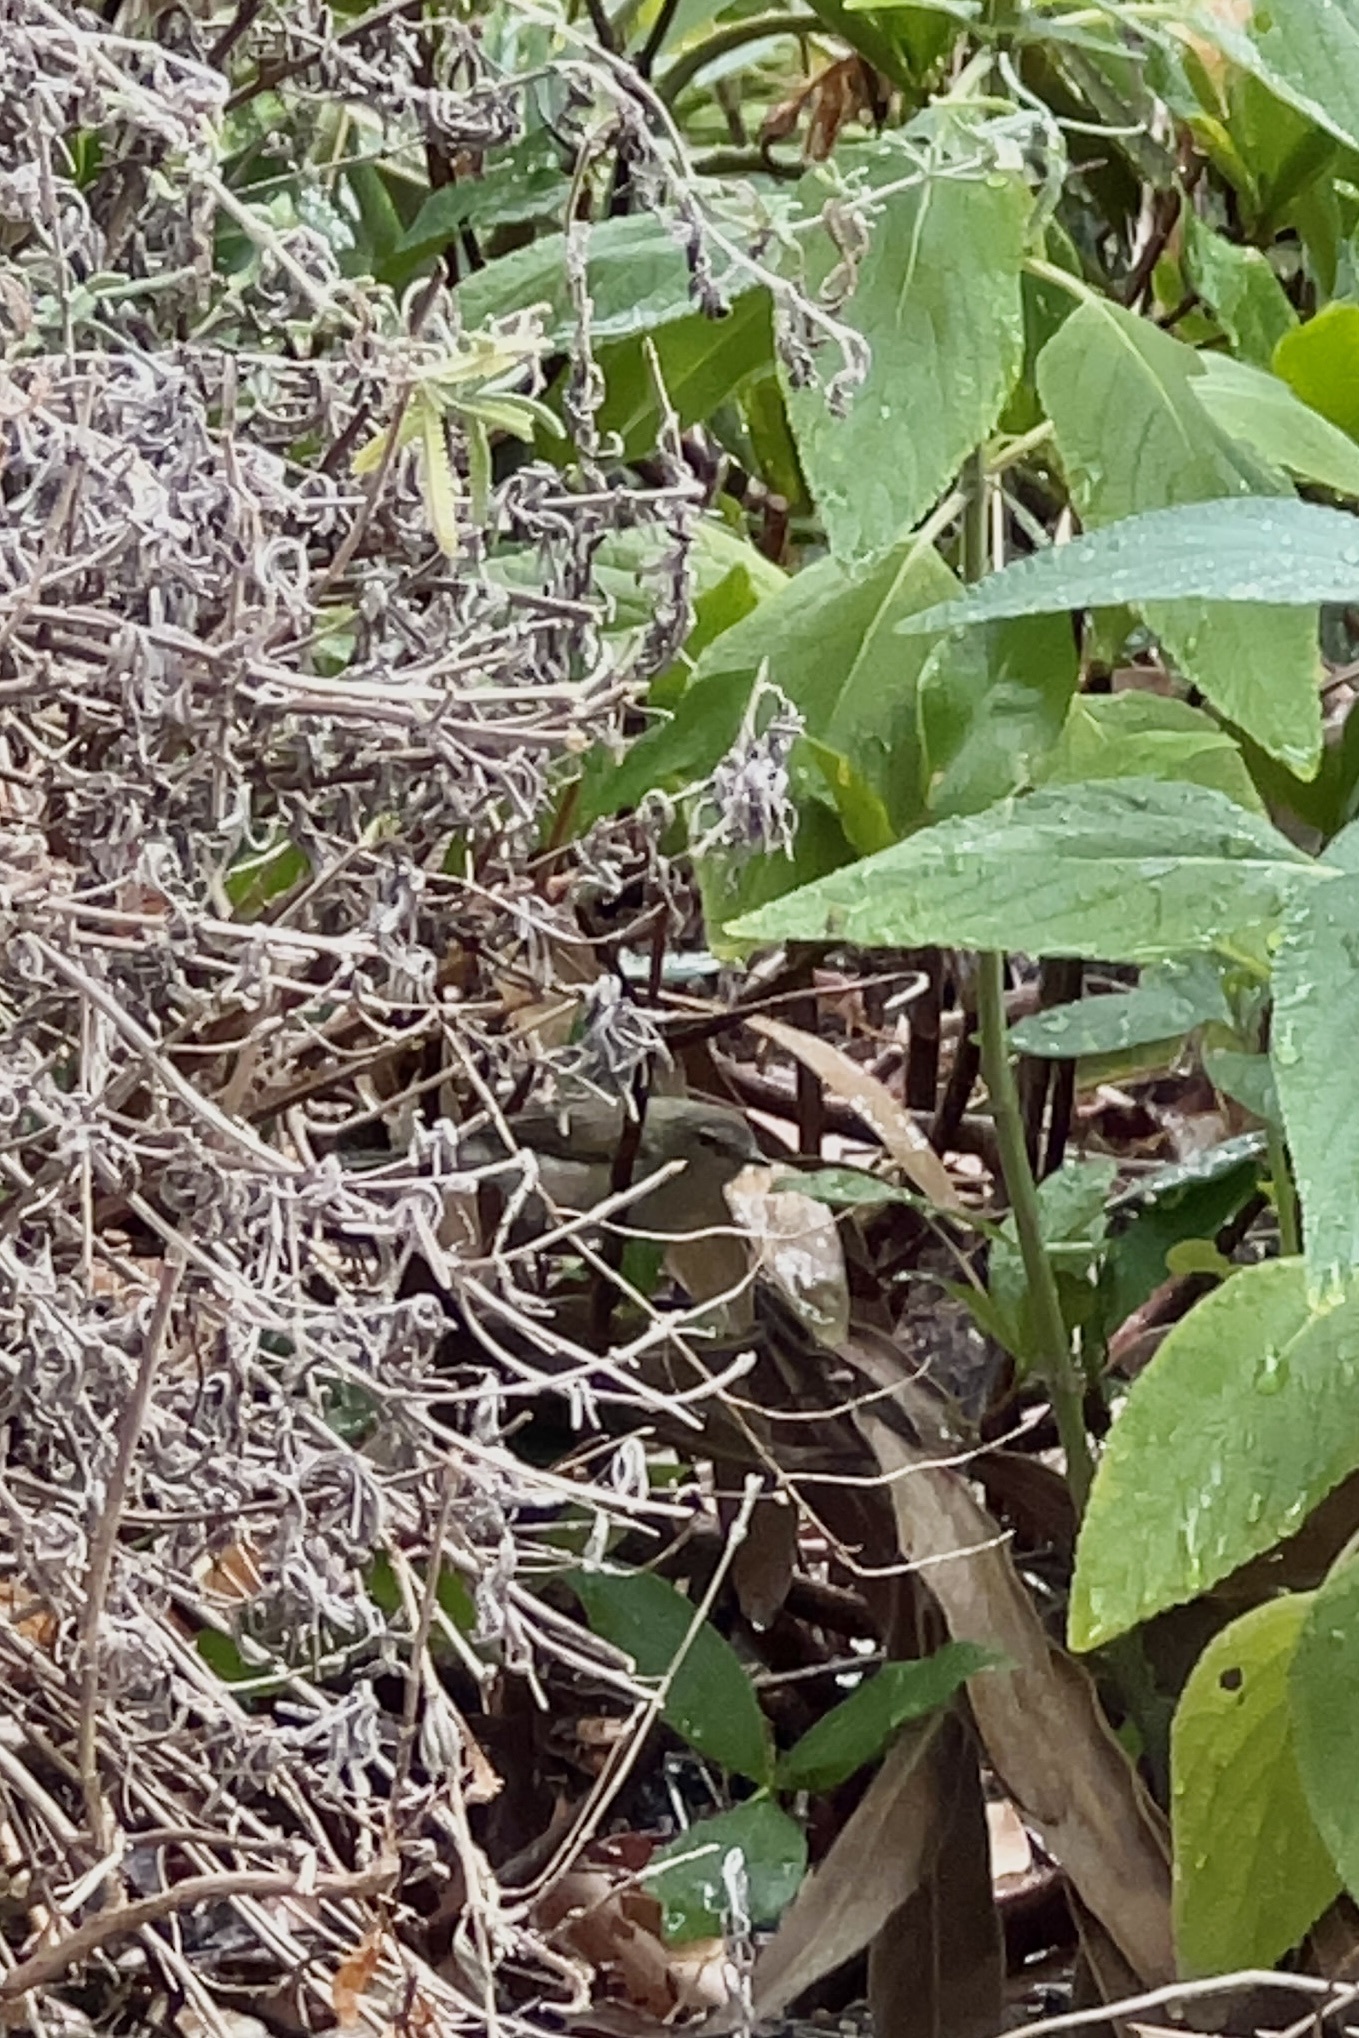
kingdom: Animalia
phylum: Chordata
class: Aves
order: Passeriformes
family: Acanthizidae
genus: Gerygone
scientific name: Gerygone fusca
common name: Western gerygone
